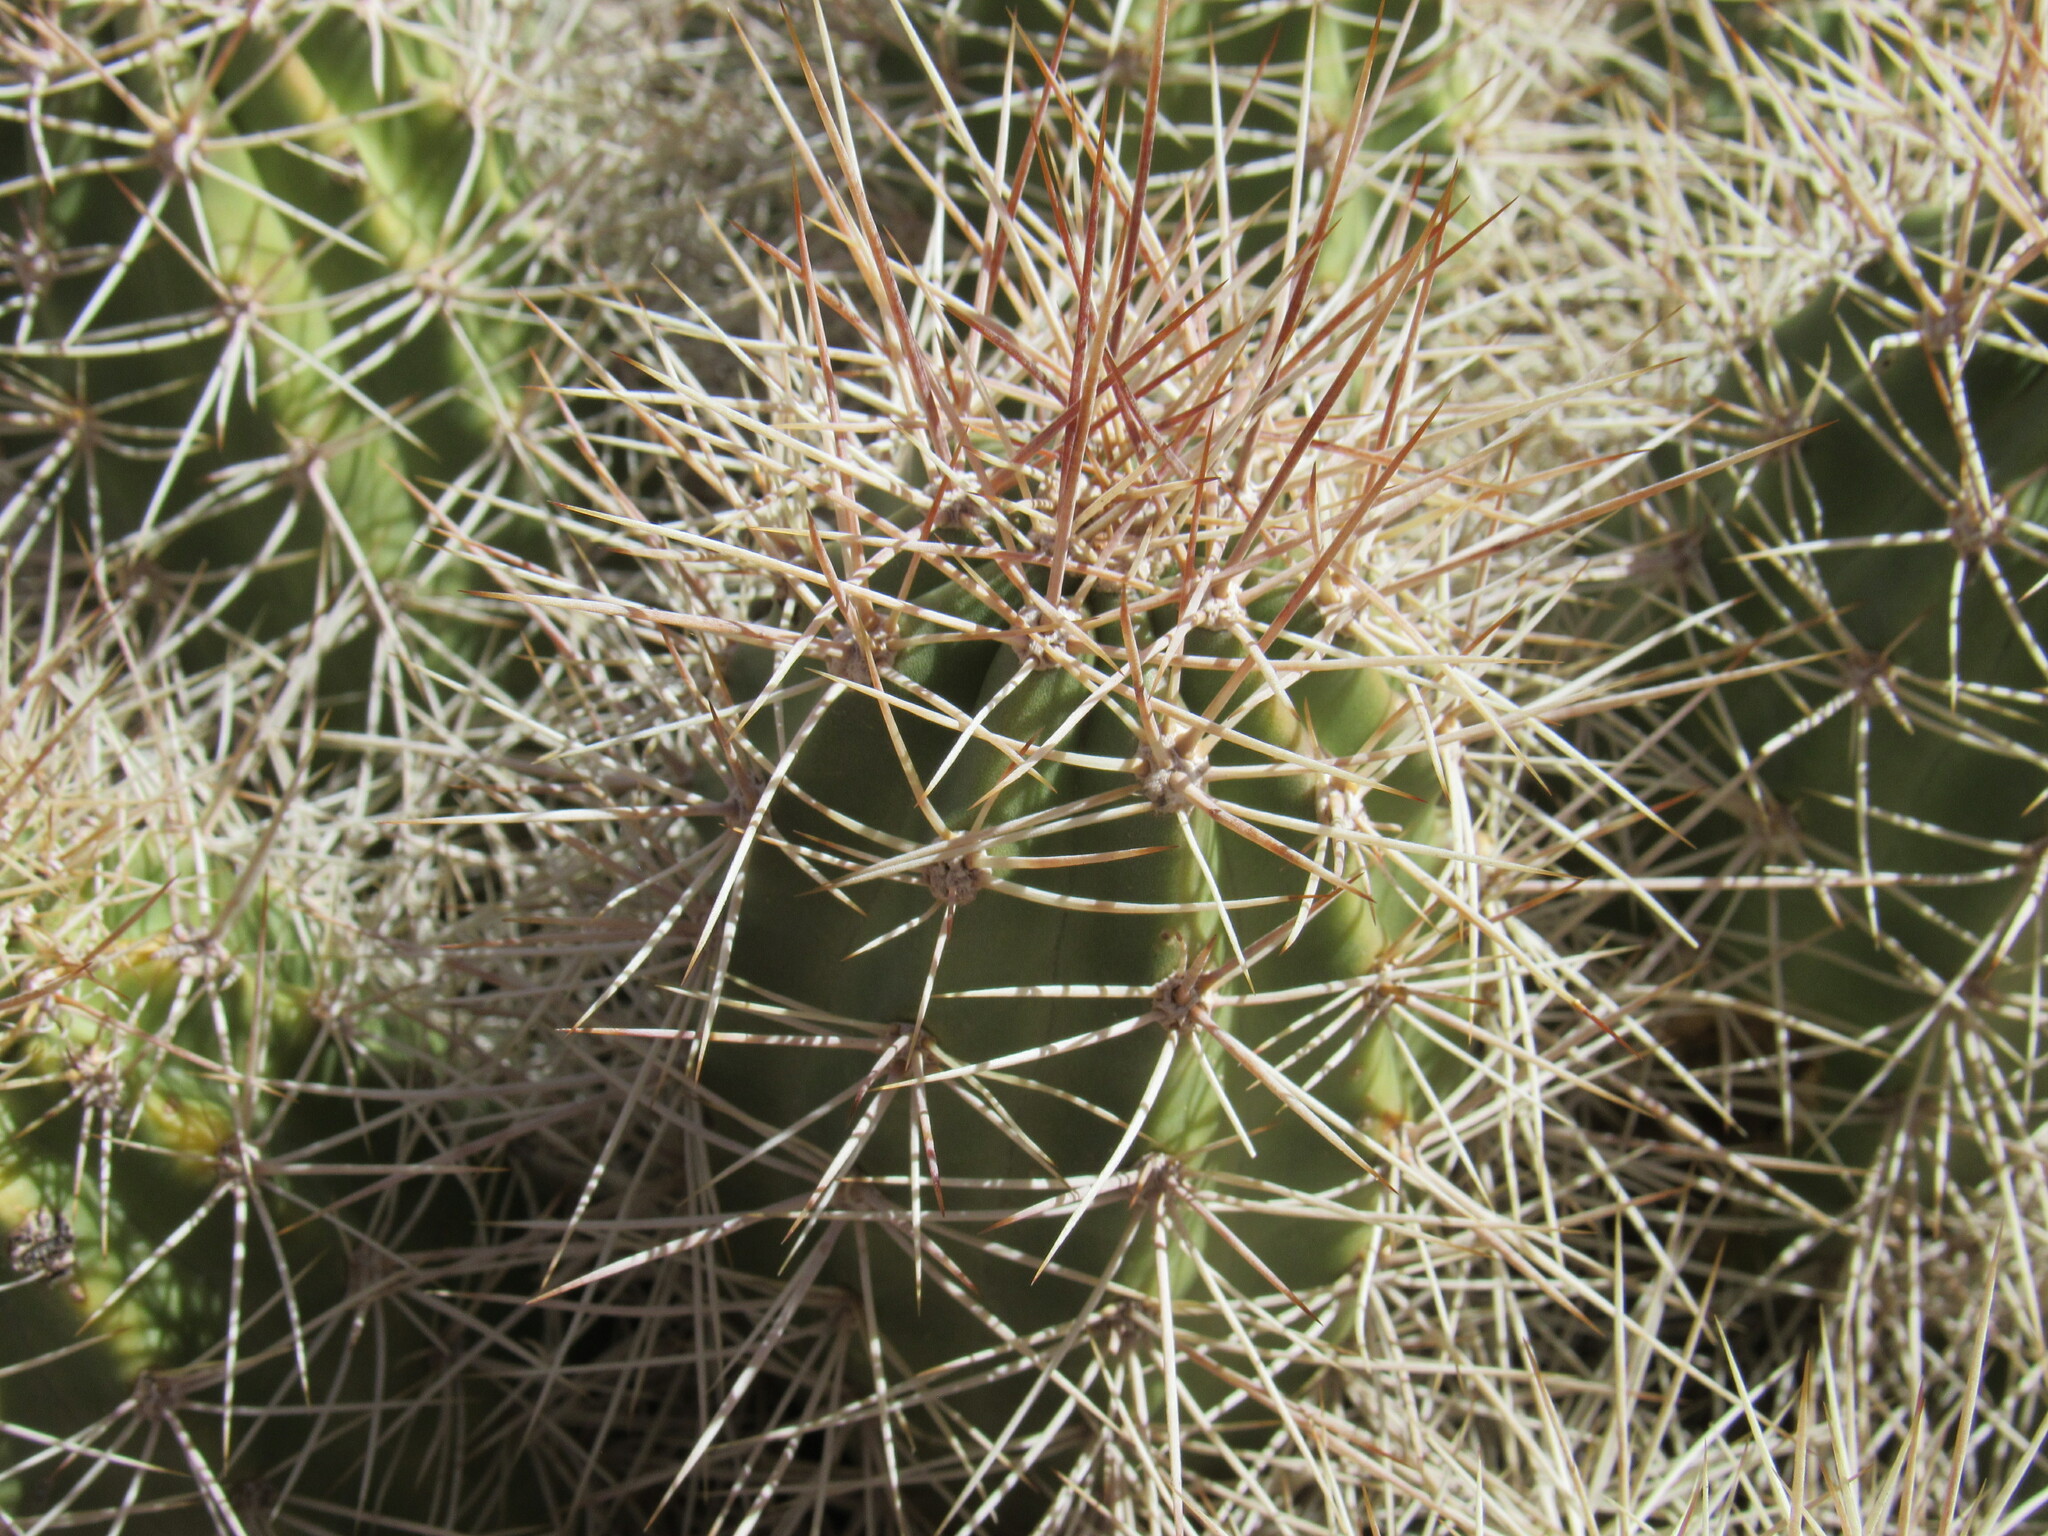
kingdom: Plantae
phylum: Tracheophyta
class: Magnoliopsida
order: Caryophyllales
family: Cactaceae
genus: Echinocereus
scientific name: Echinocereus triglochidiatus
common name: Claretcup hedgehog
